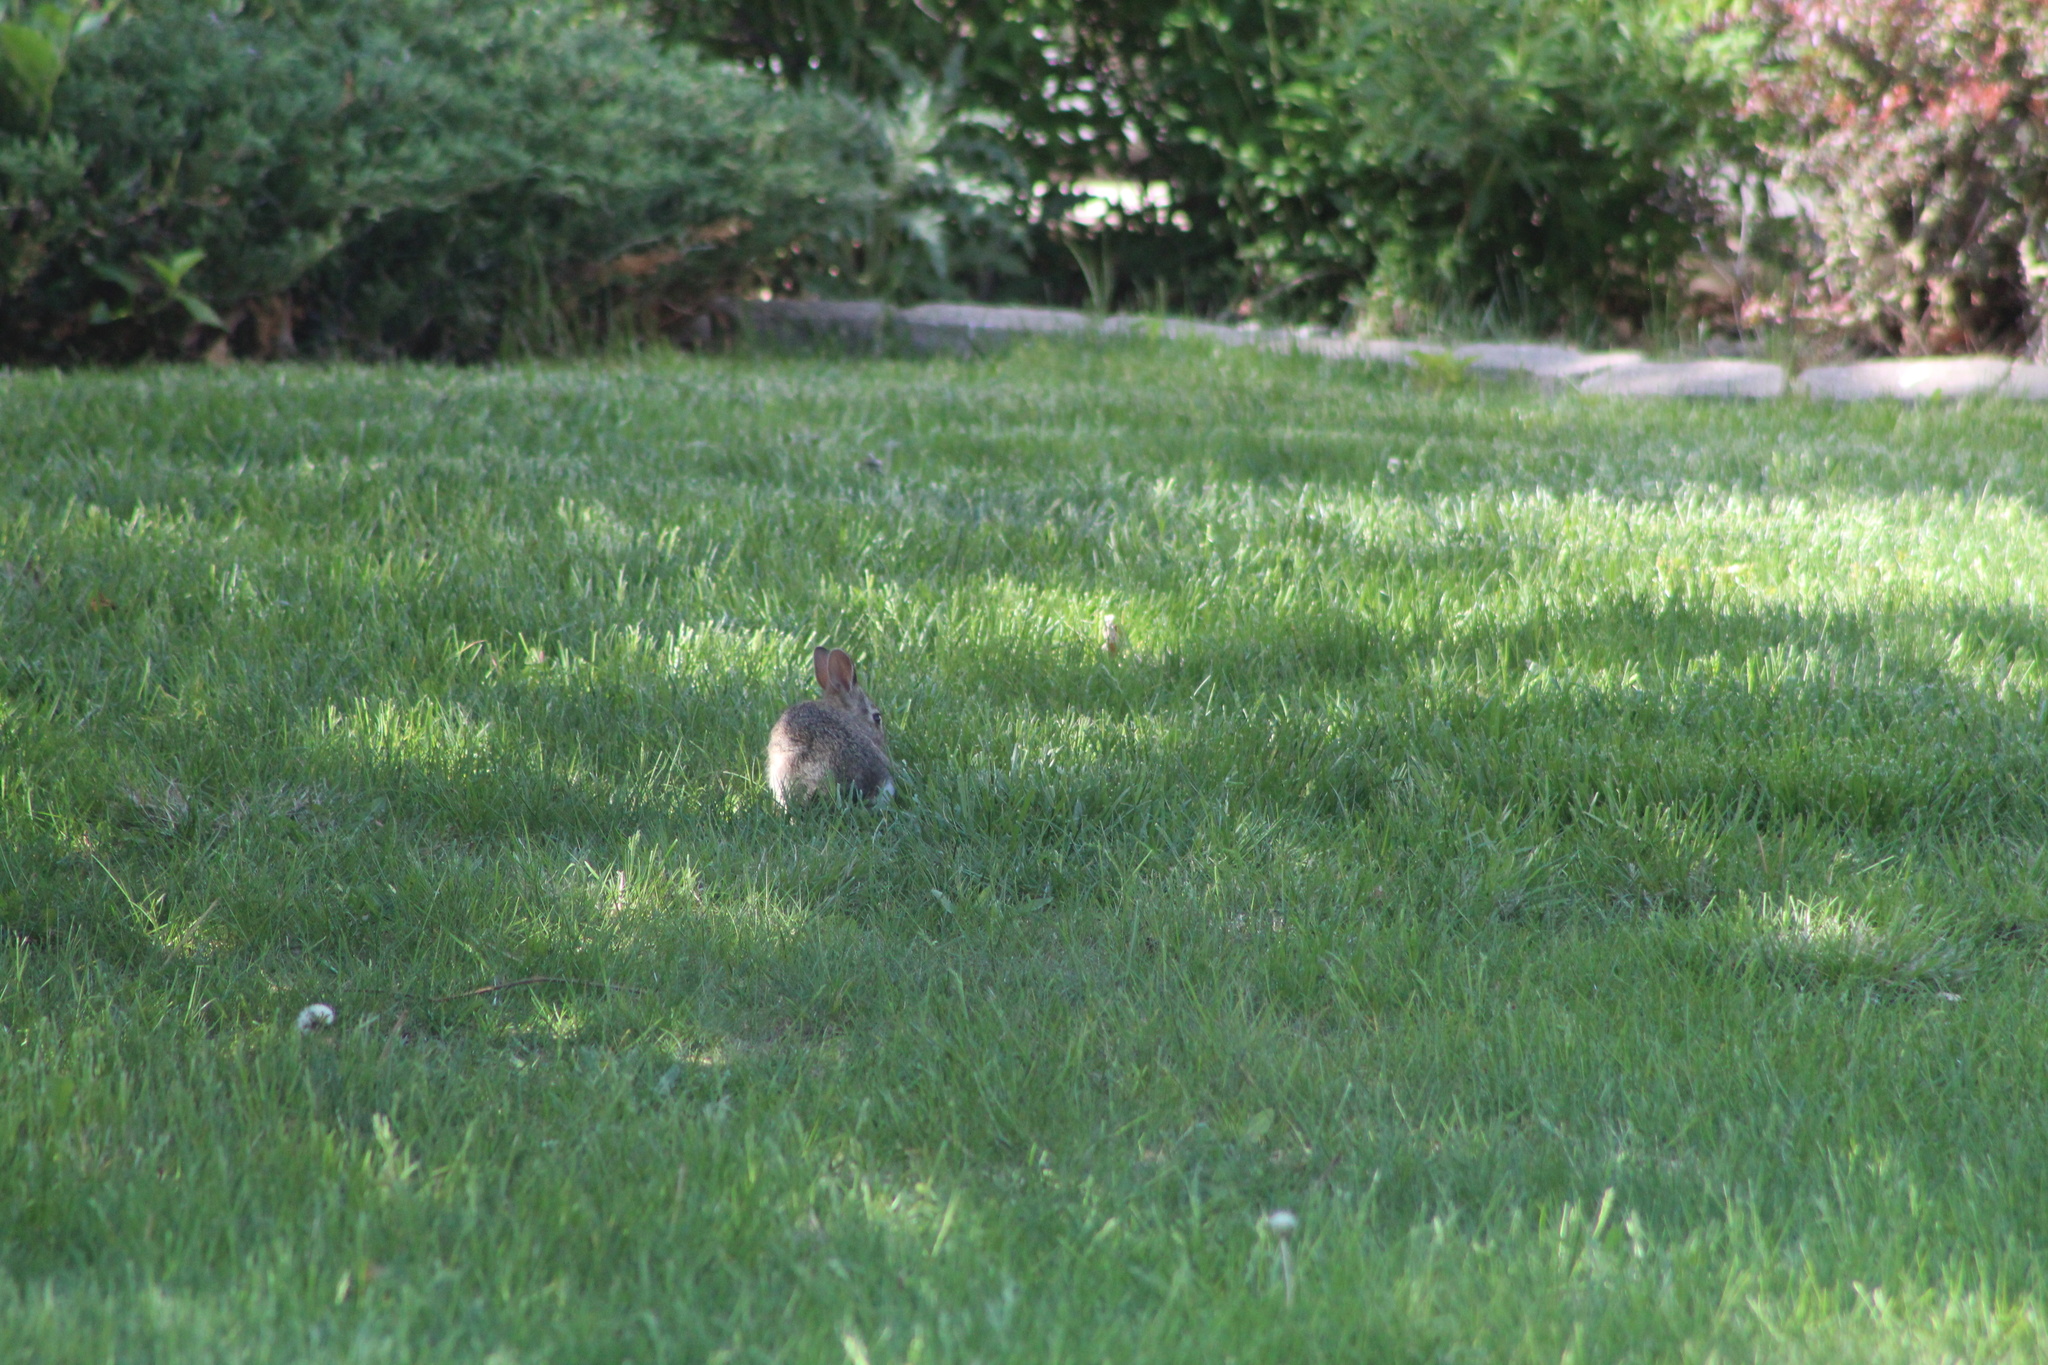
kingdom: Animalia
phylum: Chordata
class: Mammalia
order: Lagomorpha
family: Leporidae
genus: Sylvilagus
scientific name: Sylvilagus floridanus
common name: Eastern cottontail
